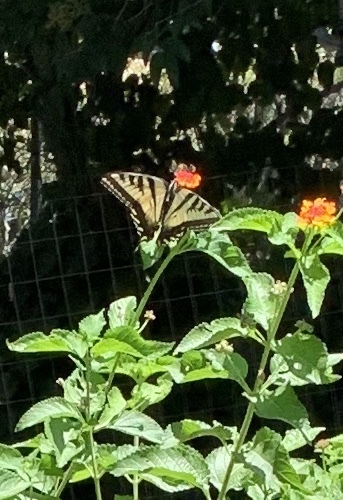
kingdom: Animalia
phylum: Arthropoda
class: Insecta
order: Lepidoptera
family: Papilionidae
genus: Papilio
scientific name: Papilio rutulus
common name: Western tiger swallowtail
